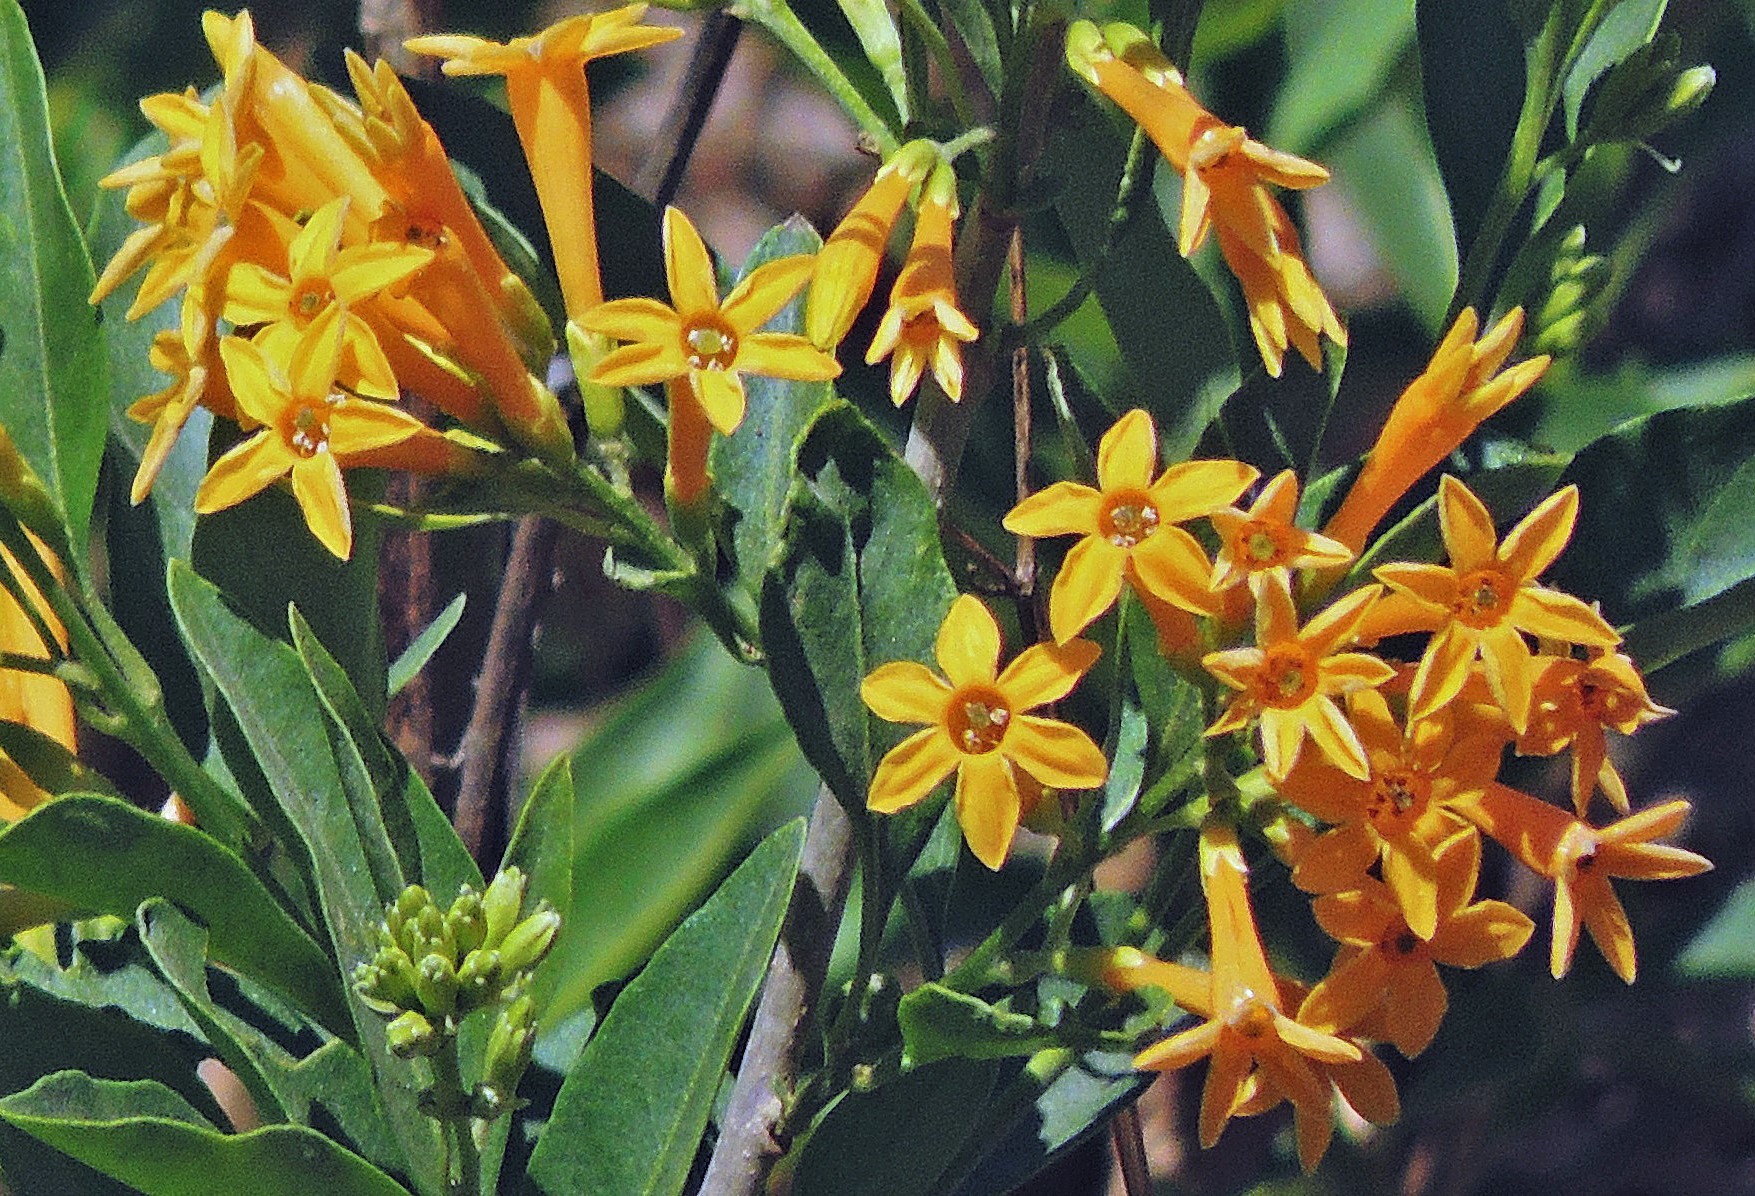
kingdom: Plantae
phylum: Tracheophyta
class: Magnoliopsida
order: Solanales
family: Solanaceae
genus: Cestrum
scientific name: Cestrum parqui
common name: Chilean cestrum
